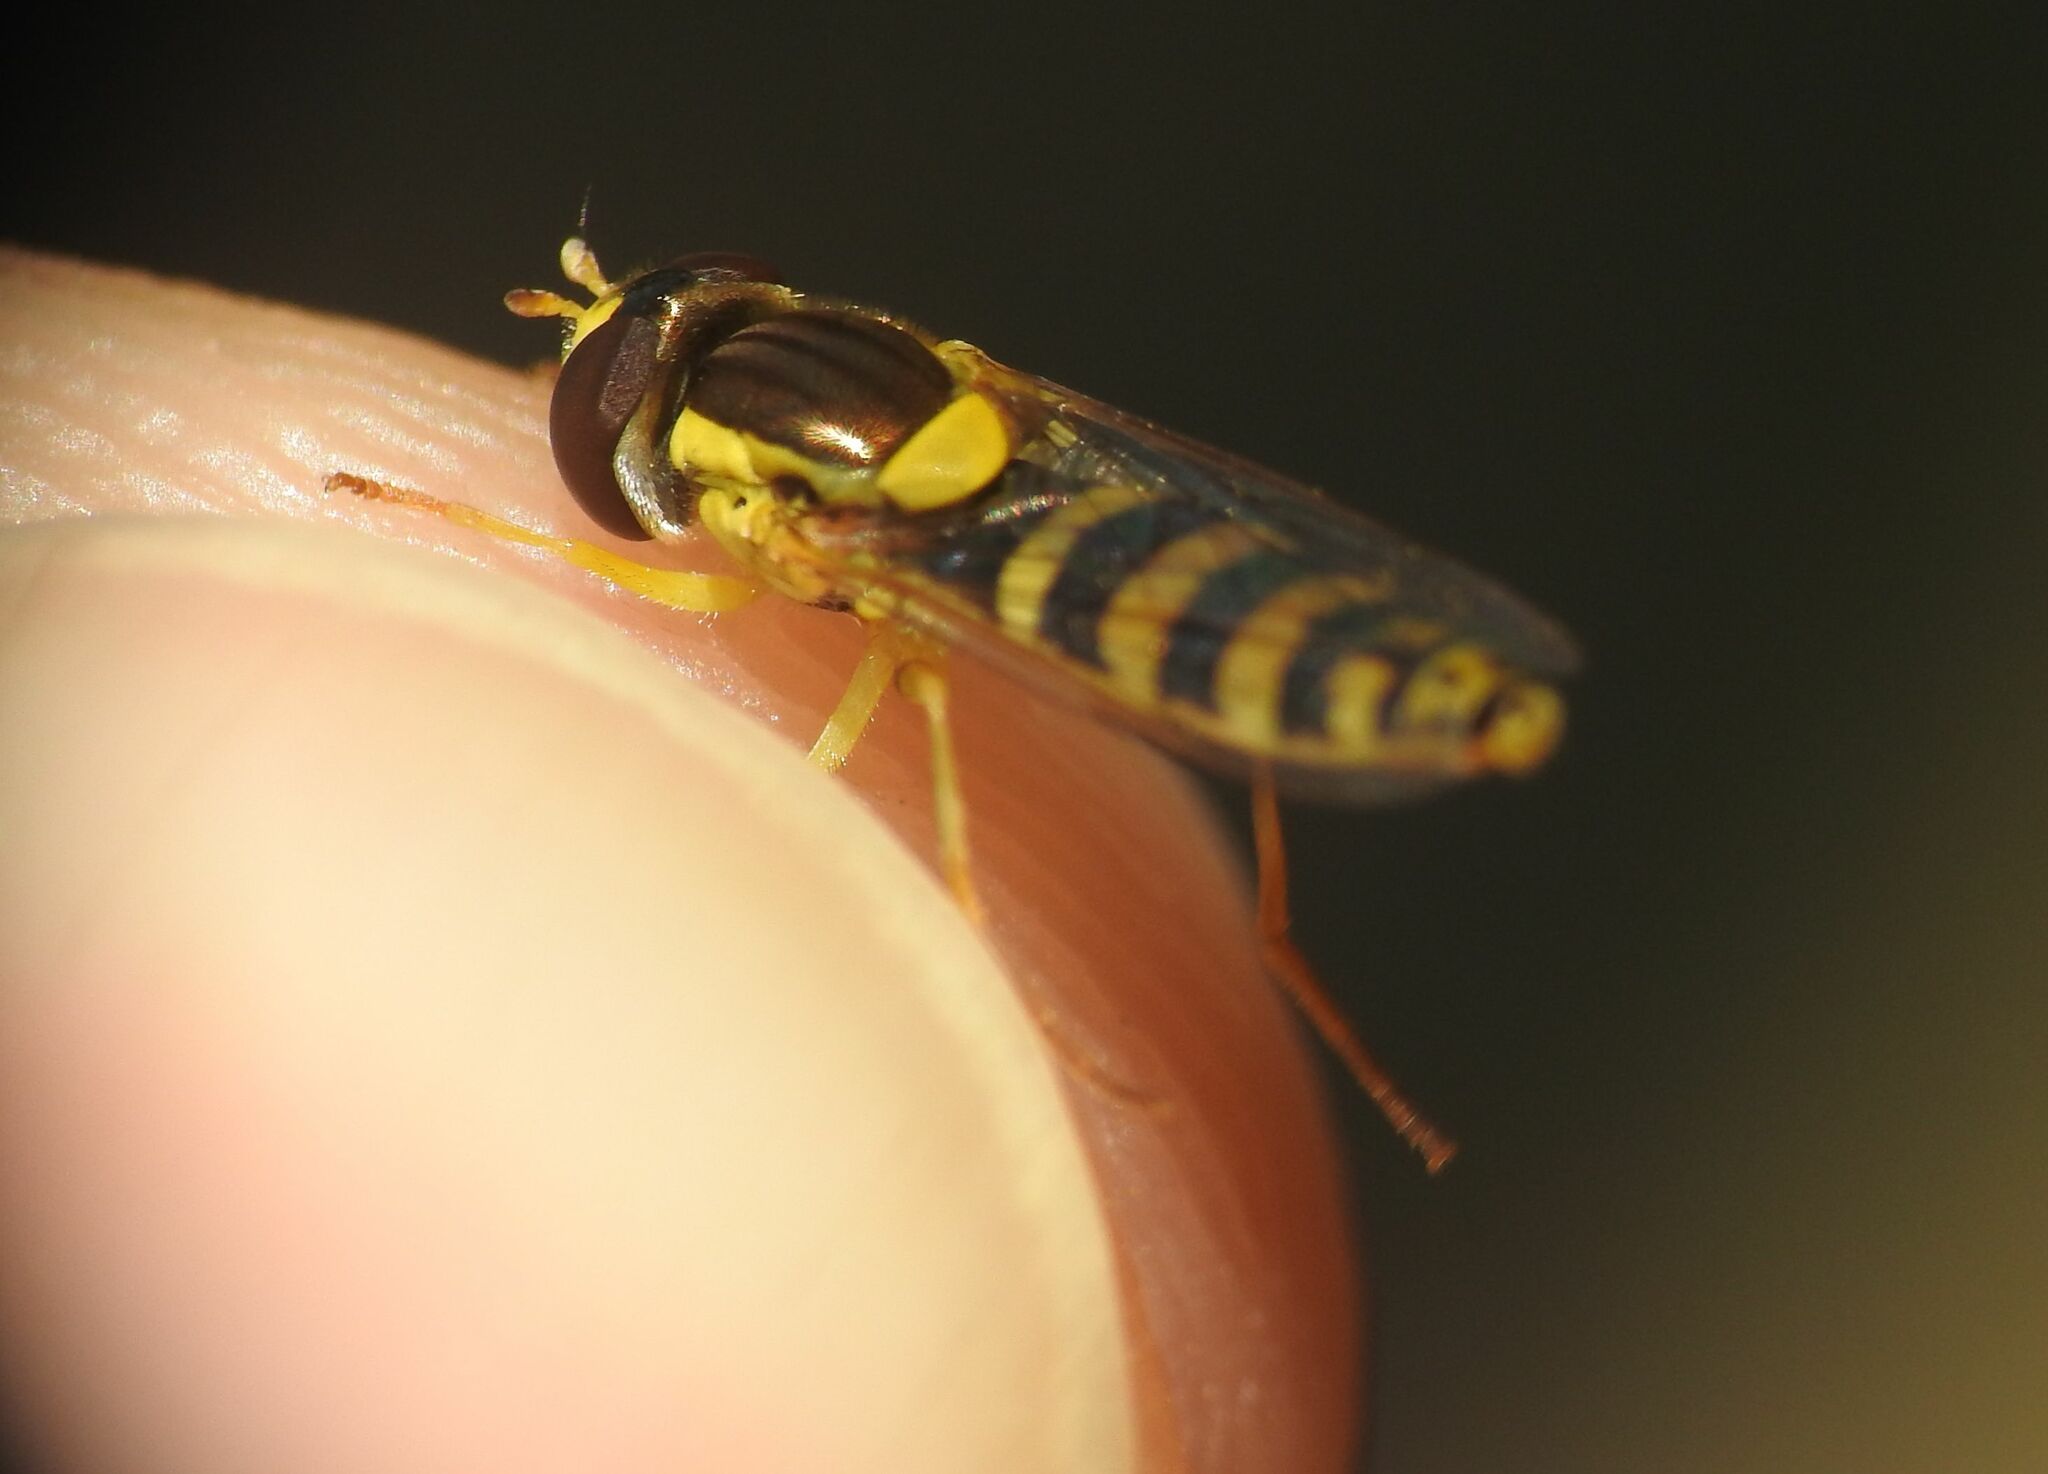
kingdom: Animalia
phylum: Arthropoda
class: Insecta
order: Diptera
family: Syrphidae
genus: Sphaerophoria
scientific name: Sphaerophoria
